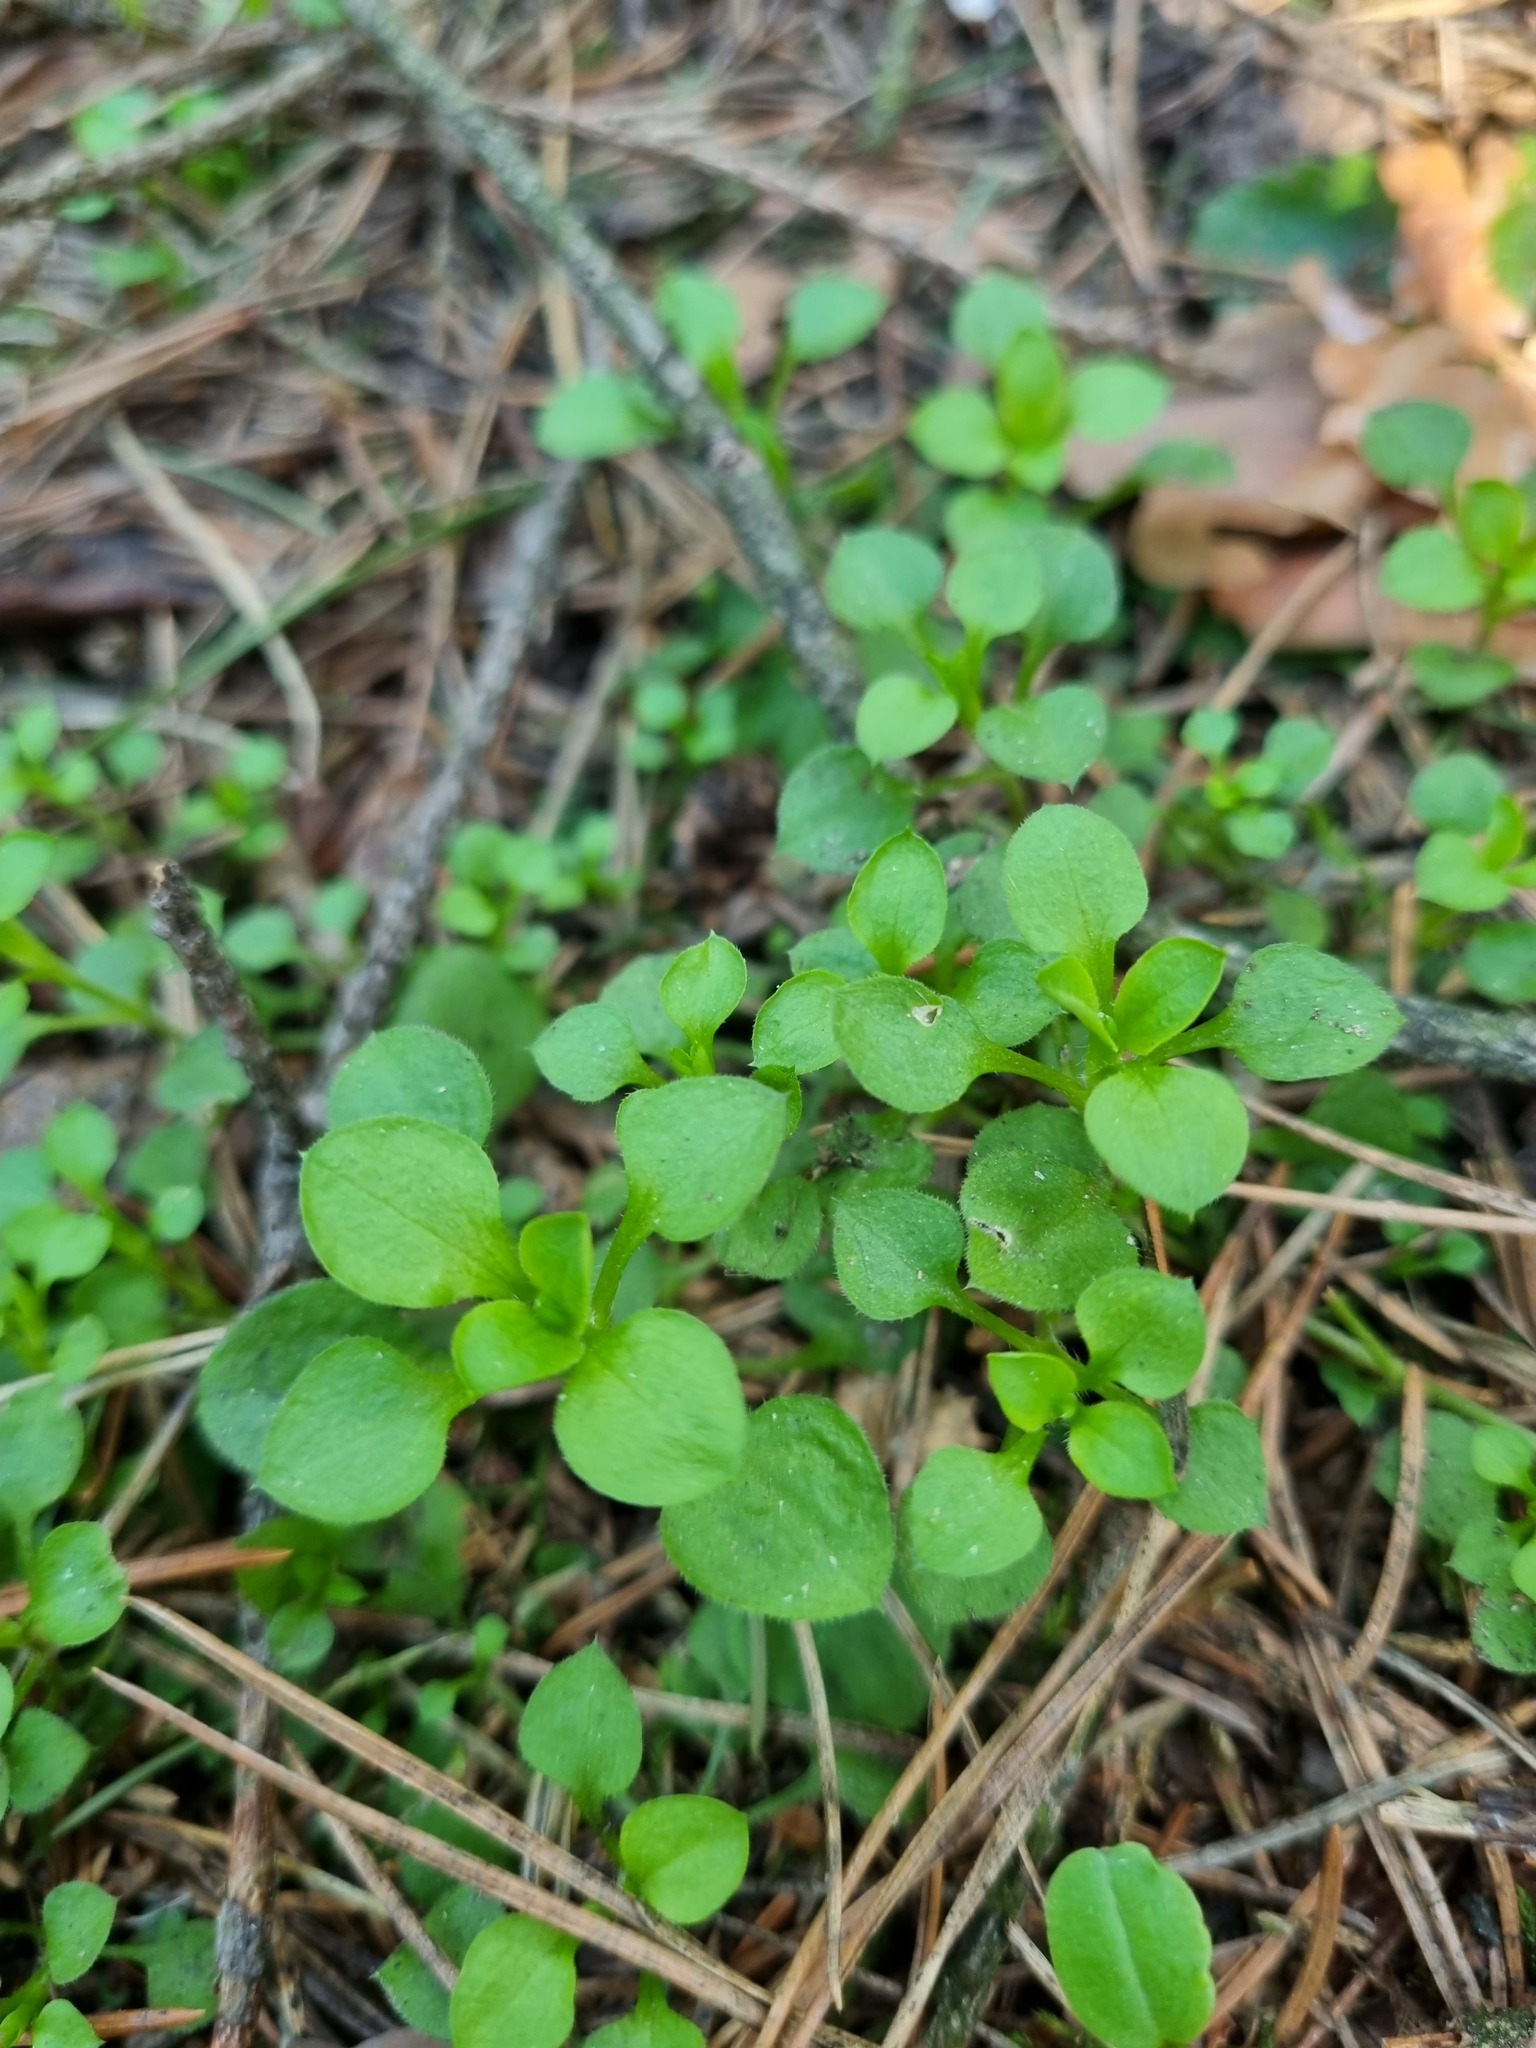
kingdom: Plantae
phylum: Tracheophyta
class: Magnoliopsida
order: Caryophyllales
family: Caryophyllaceae
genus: Moehringia
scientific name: Moehringia trinervia
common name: Three-nerved sandwort
